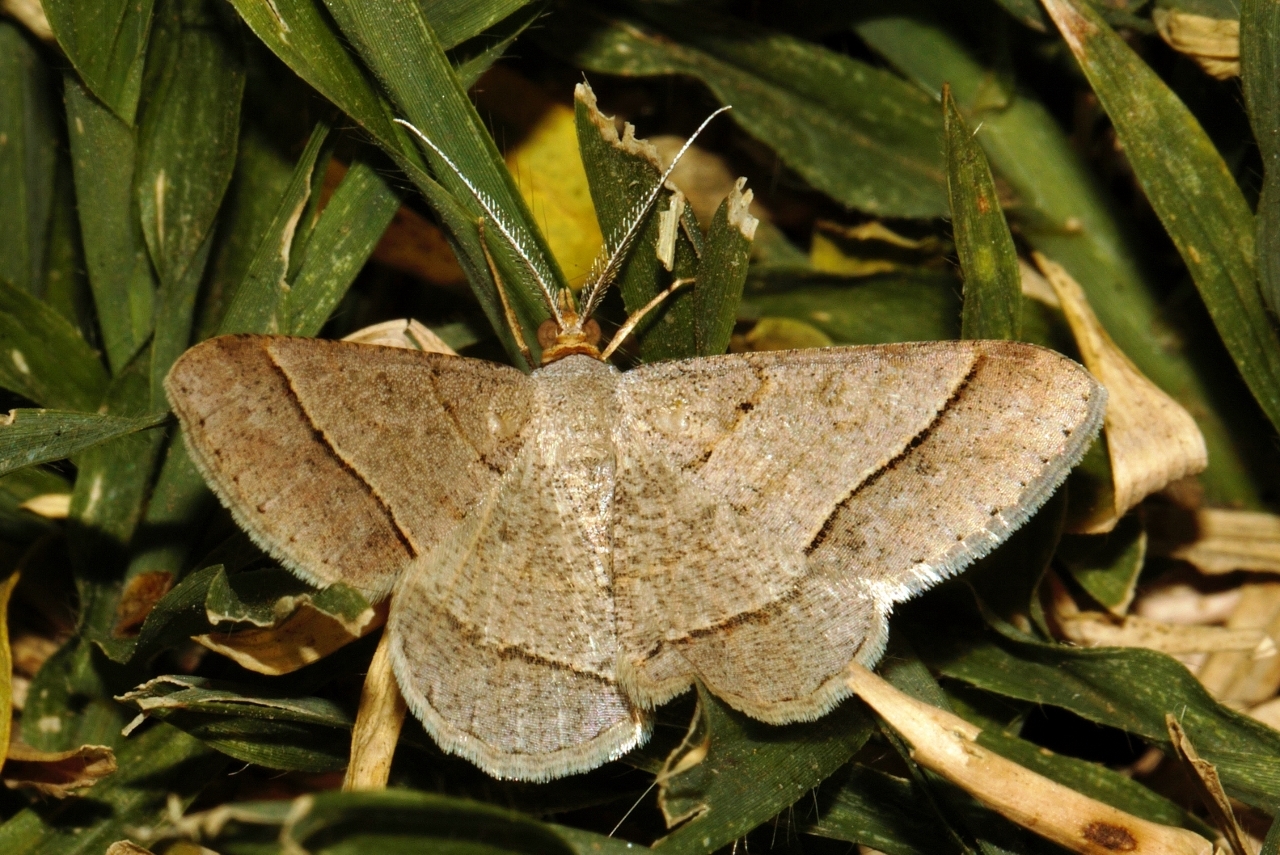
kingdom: Animalia
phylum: Arthropoda
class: Insecta
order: Lepidoptera
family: Geometridae
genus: Isturgia
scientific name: Isturgia deerraria
